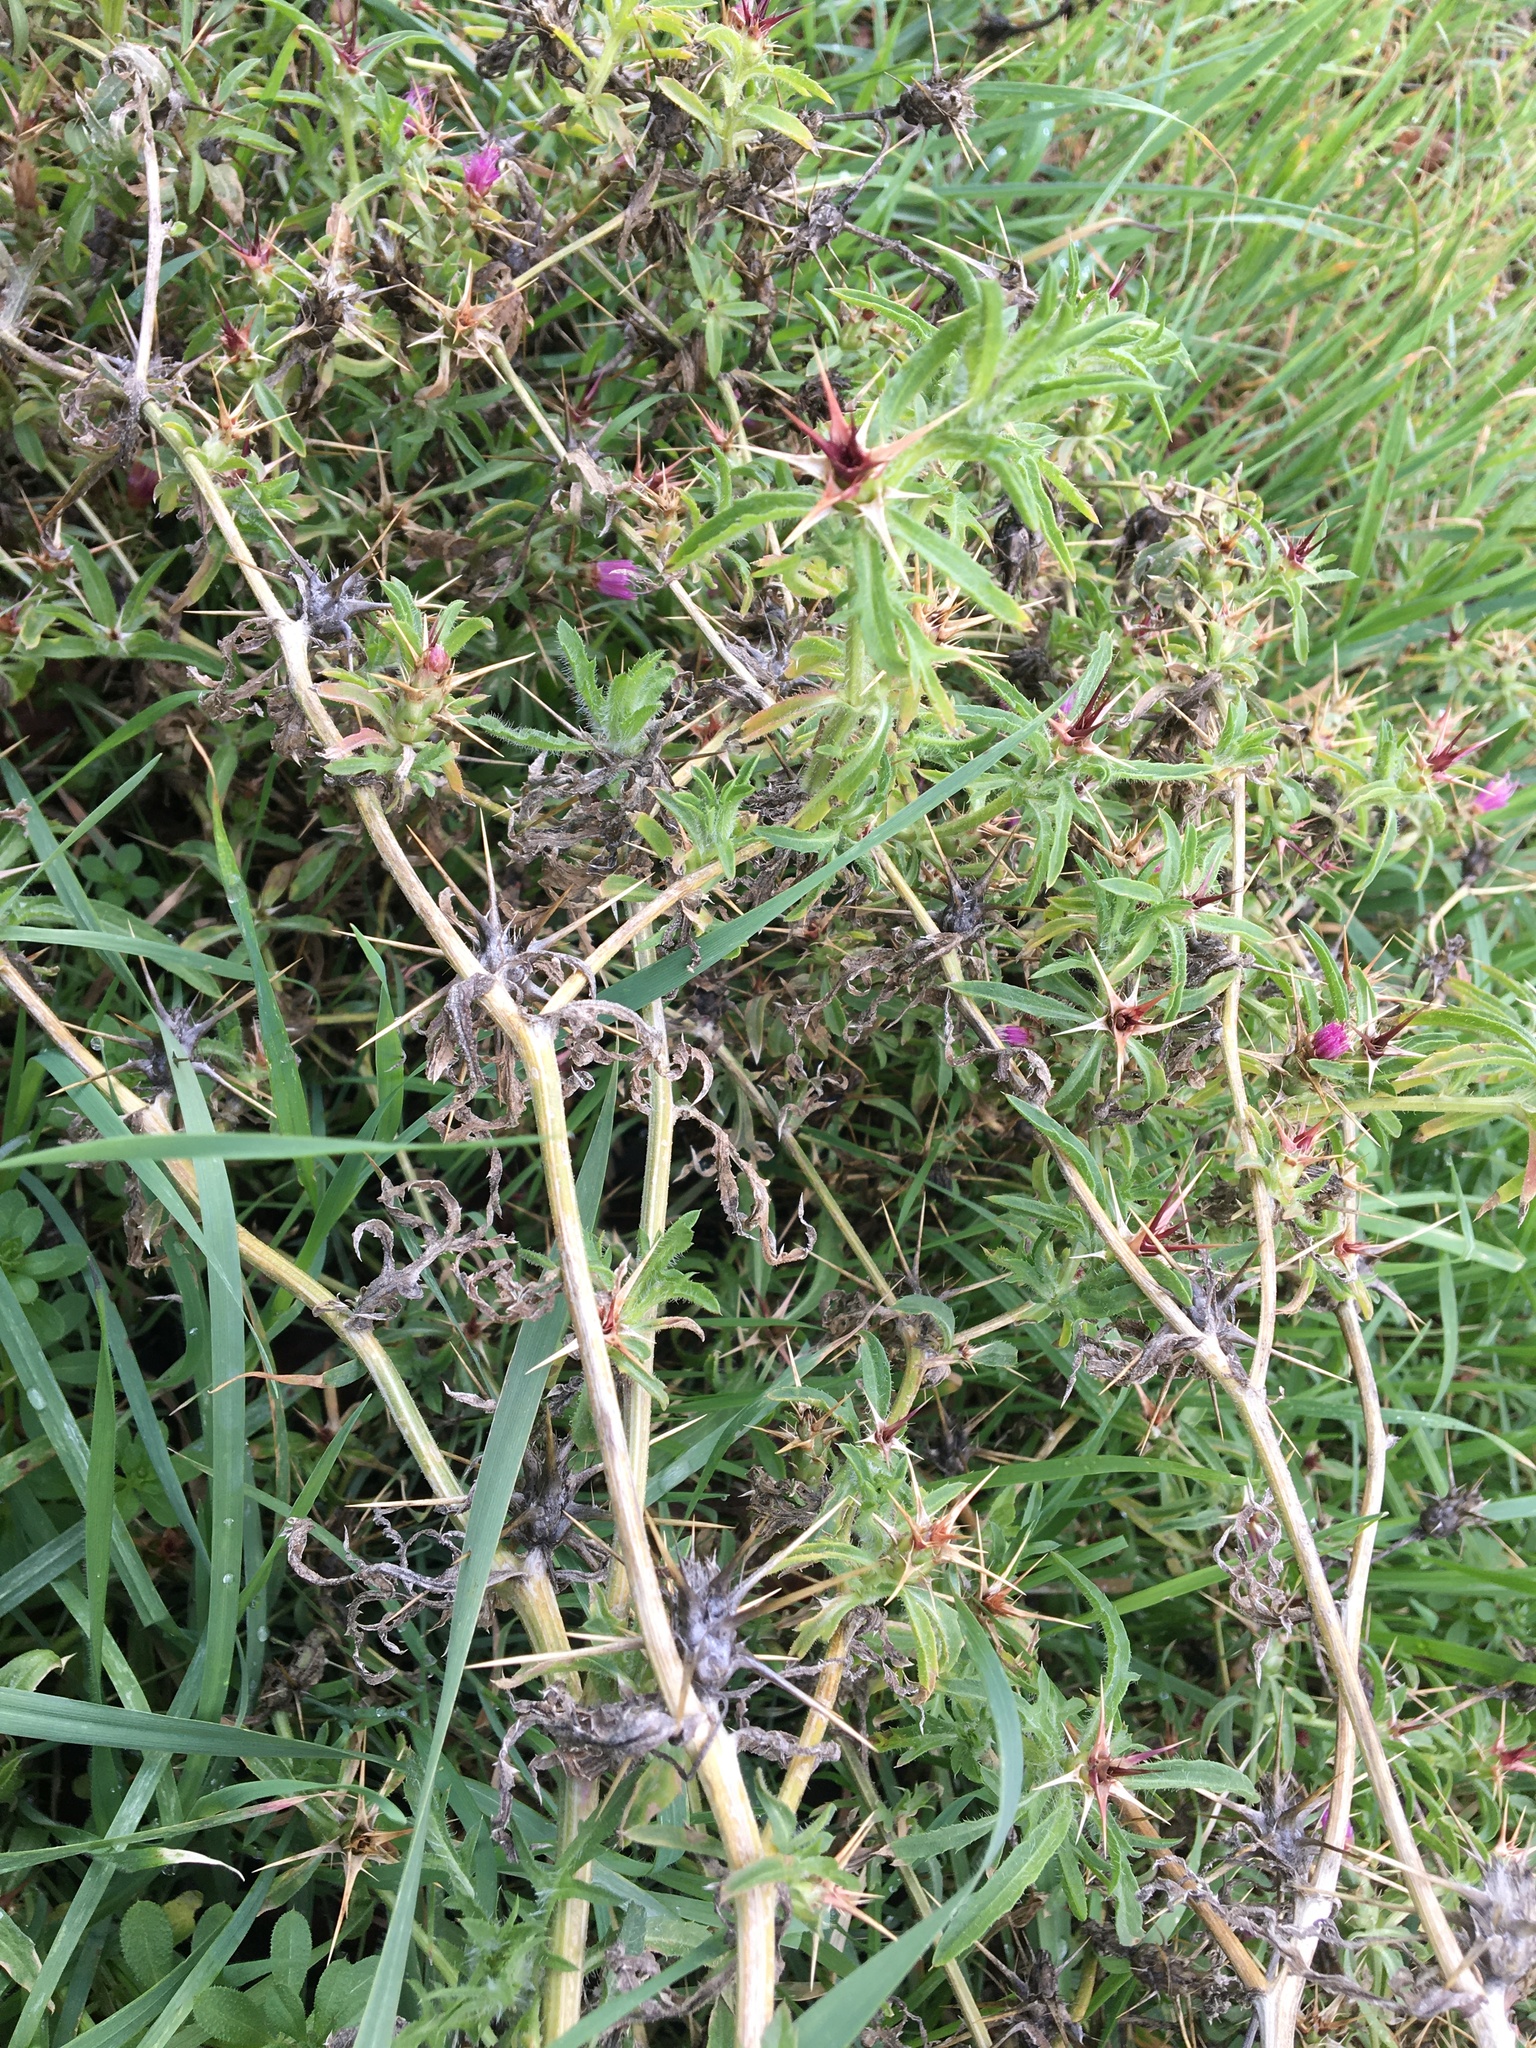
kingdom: Plantae
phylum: Tracheophyta
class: Magnoliopsida
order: Asterales
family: Asteraceae
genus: Centaurea
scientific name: Centaurea calcitrapa
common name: Red star-thistle
